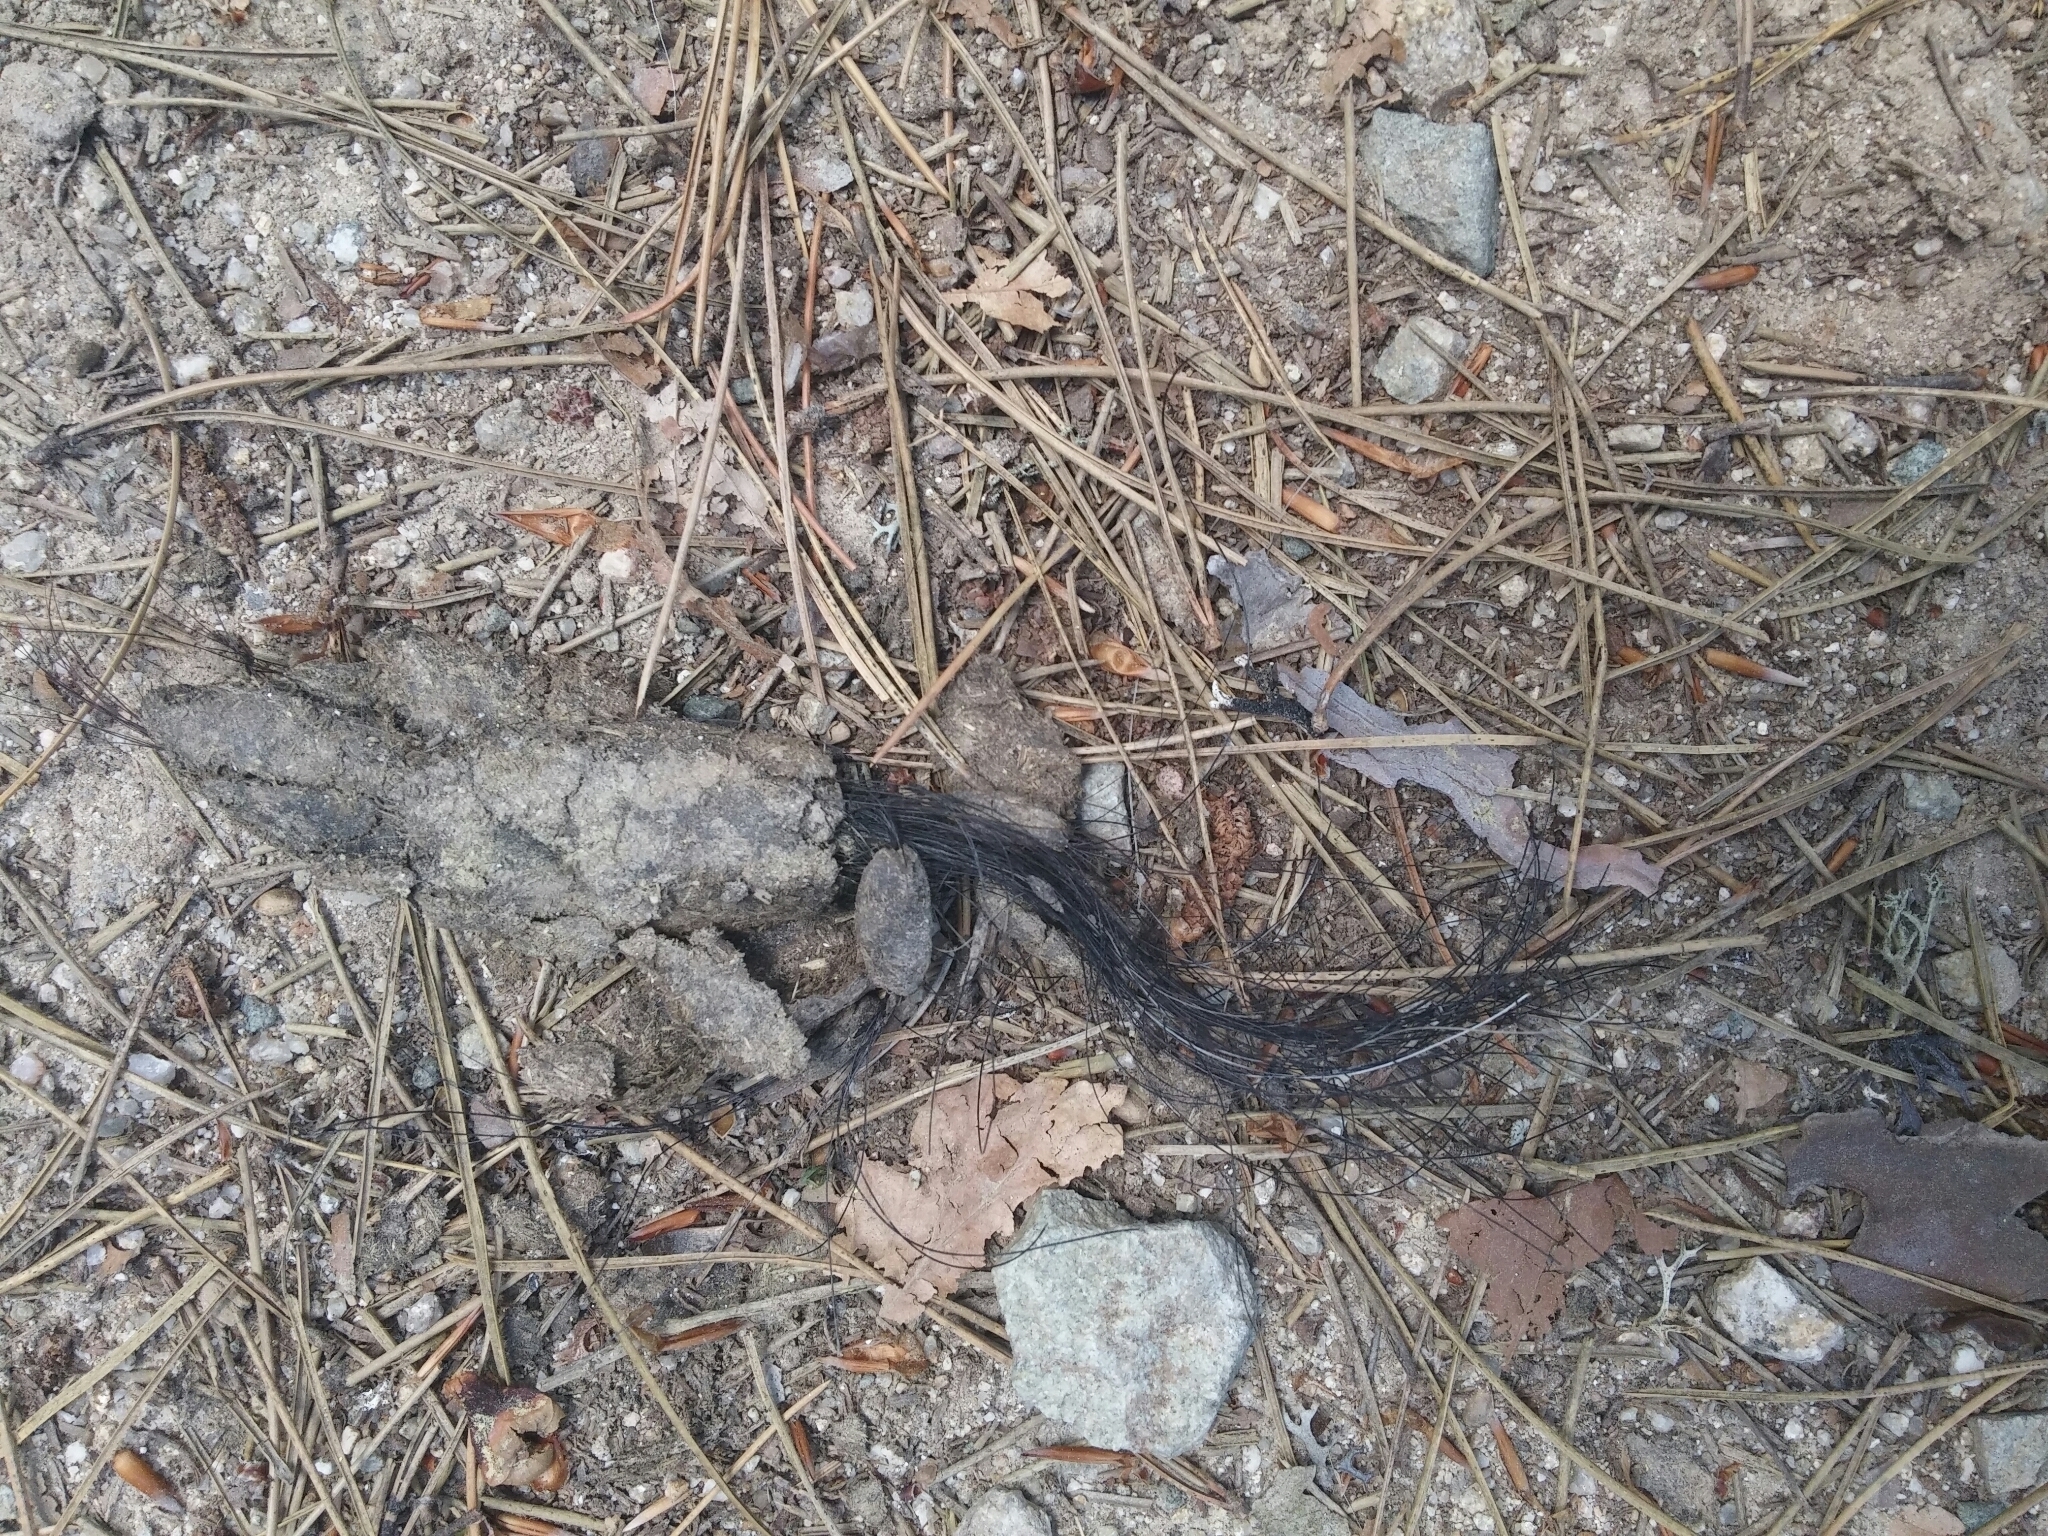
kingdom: Animalia
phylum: Chordata
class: Mammalia
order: Carnivora
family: Canidae
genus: Canis
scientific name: Canis lupus
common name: Gray wolf
